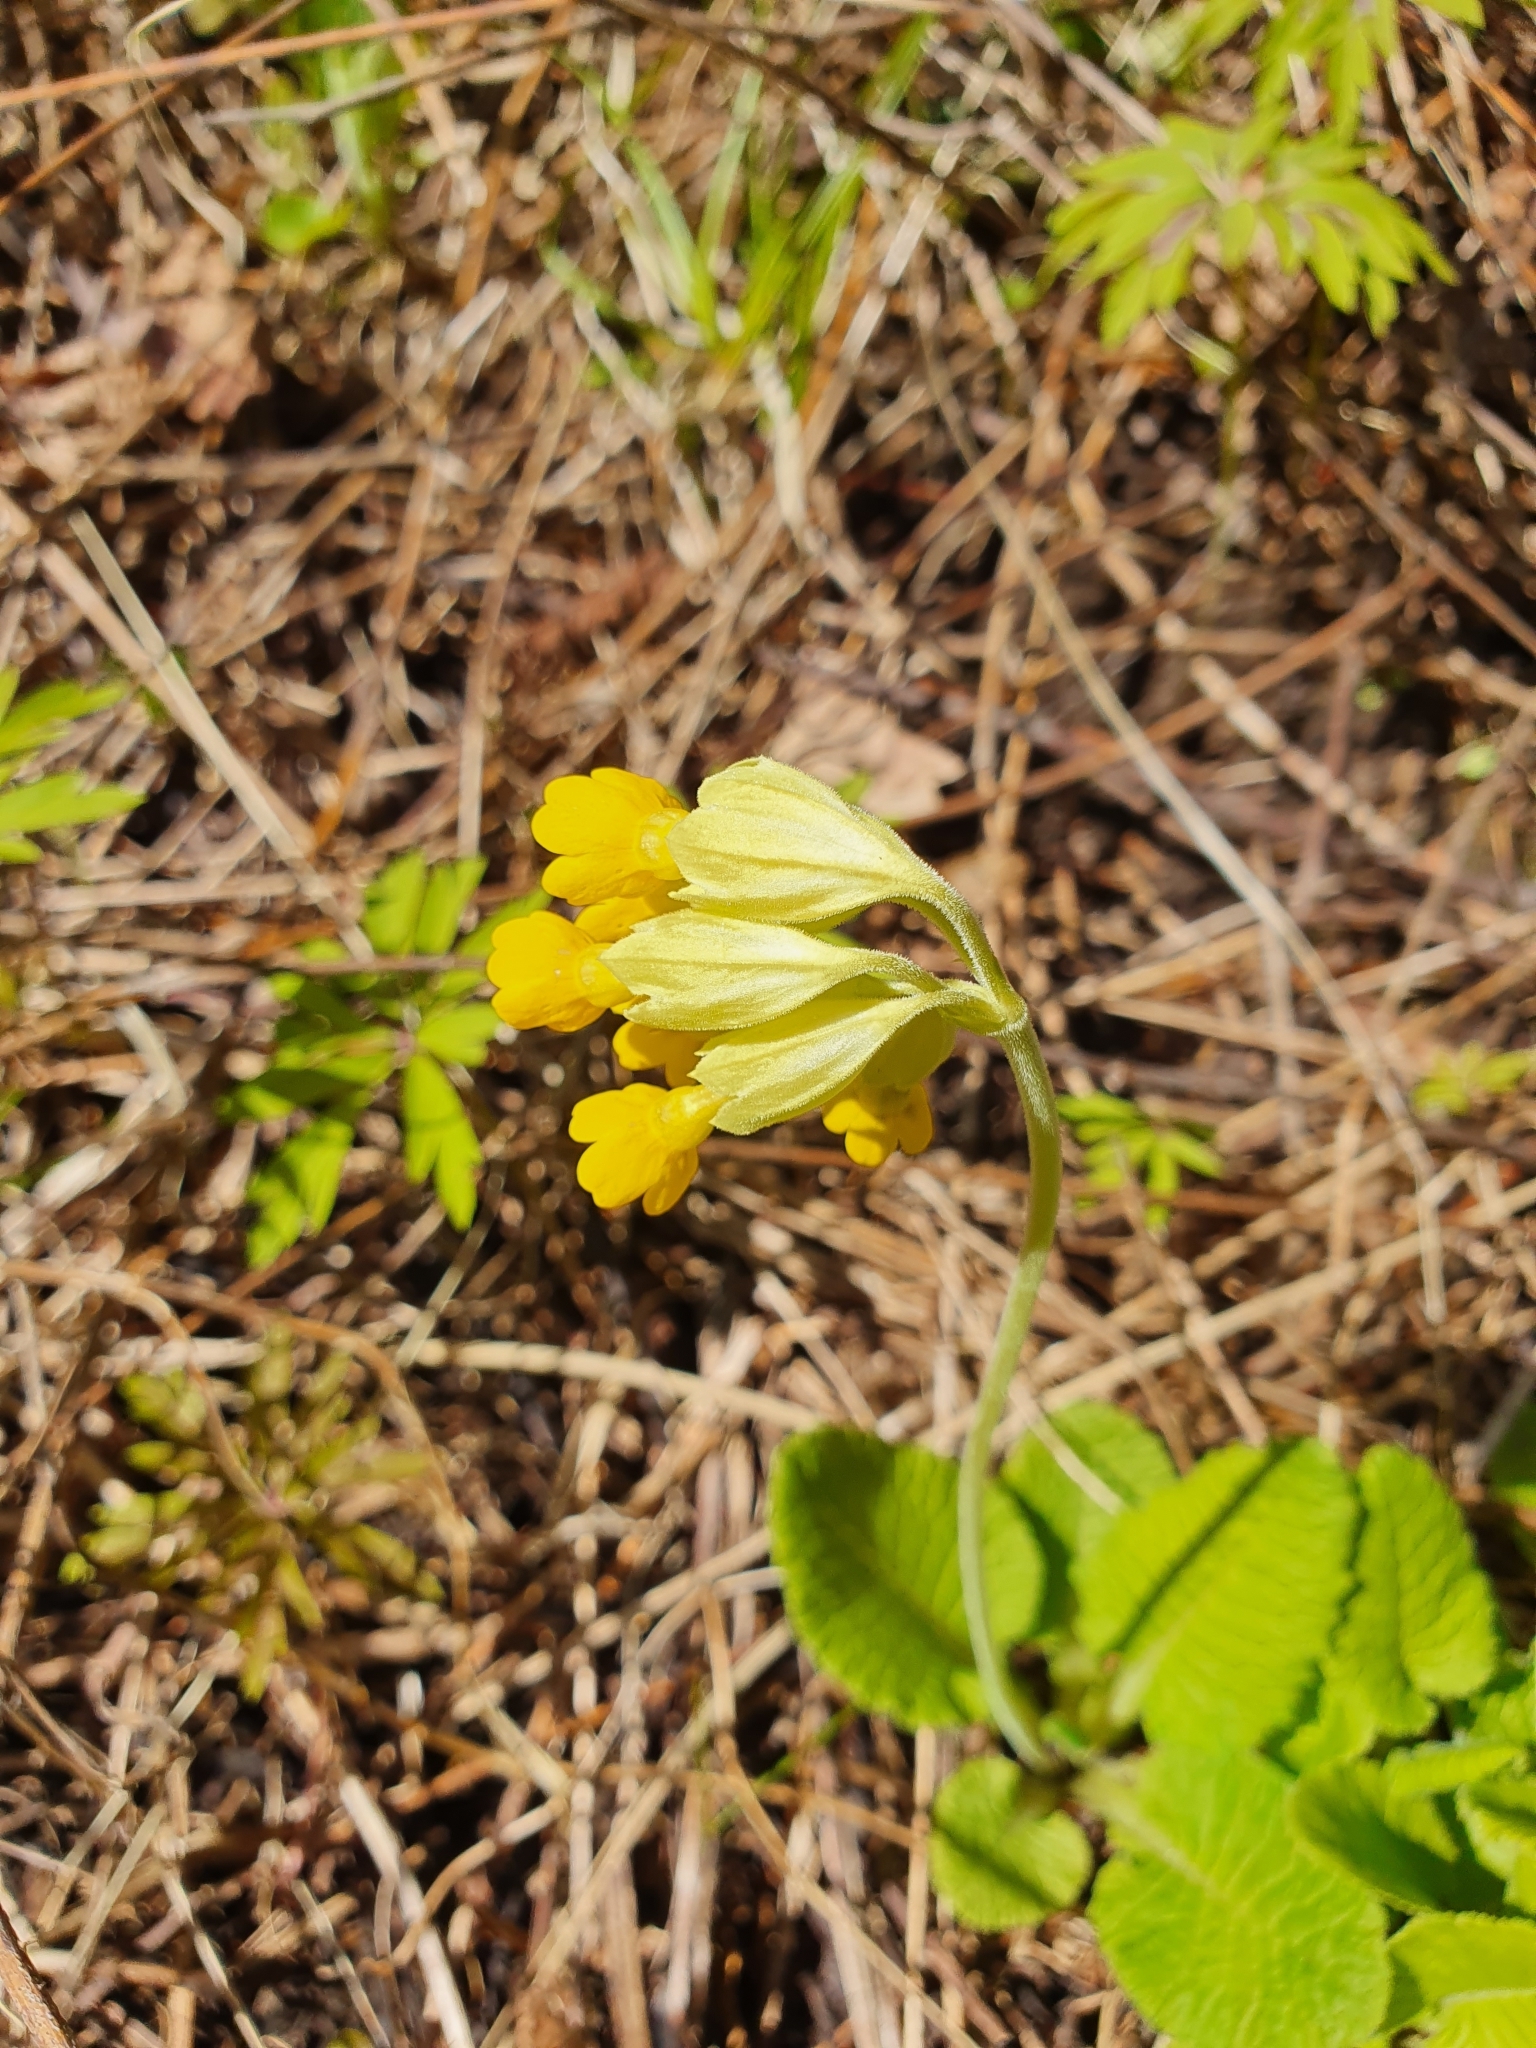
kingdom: Plantae
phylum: Tracheophyta
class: Magnoliopsida
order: Ericales
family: Primulaceae
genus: Primula
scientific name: Primula veris
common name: Cowslip
